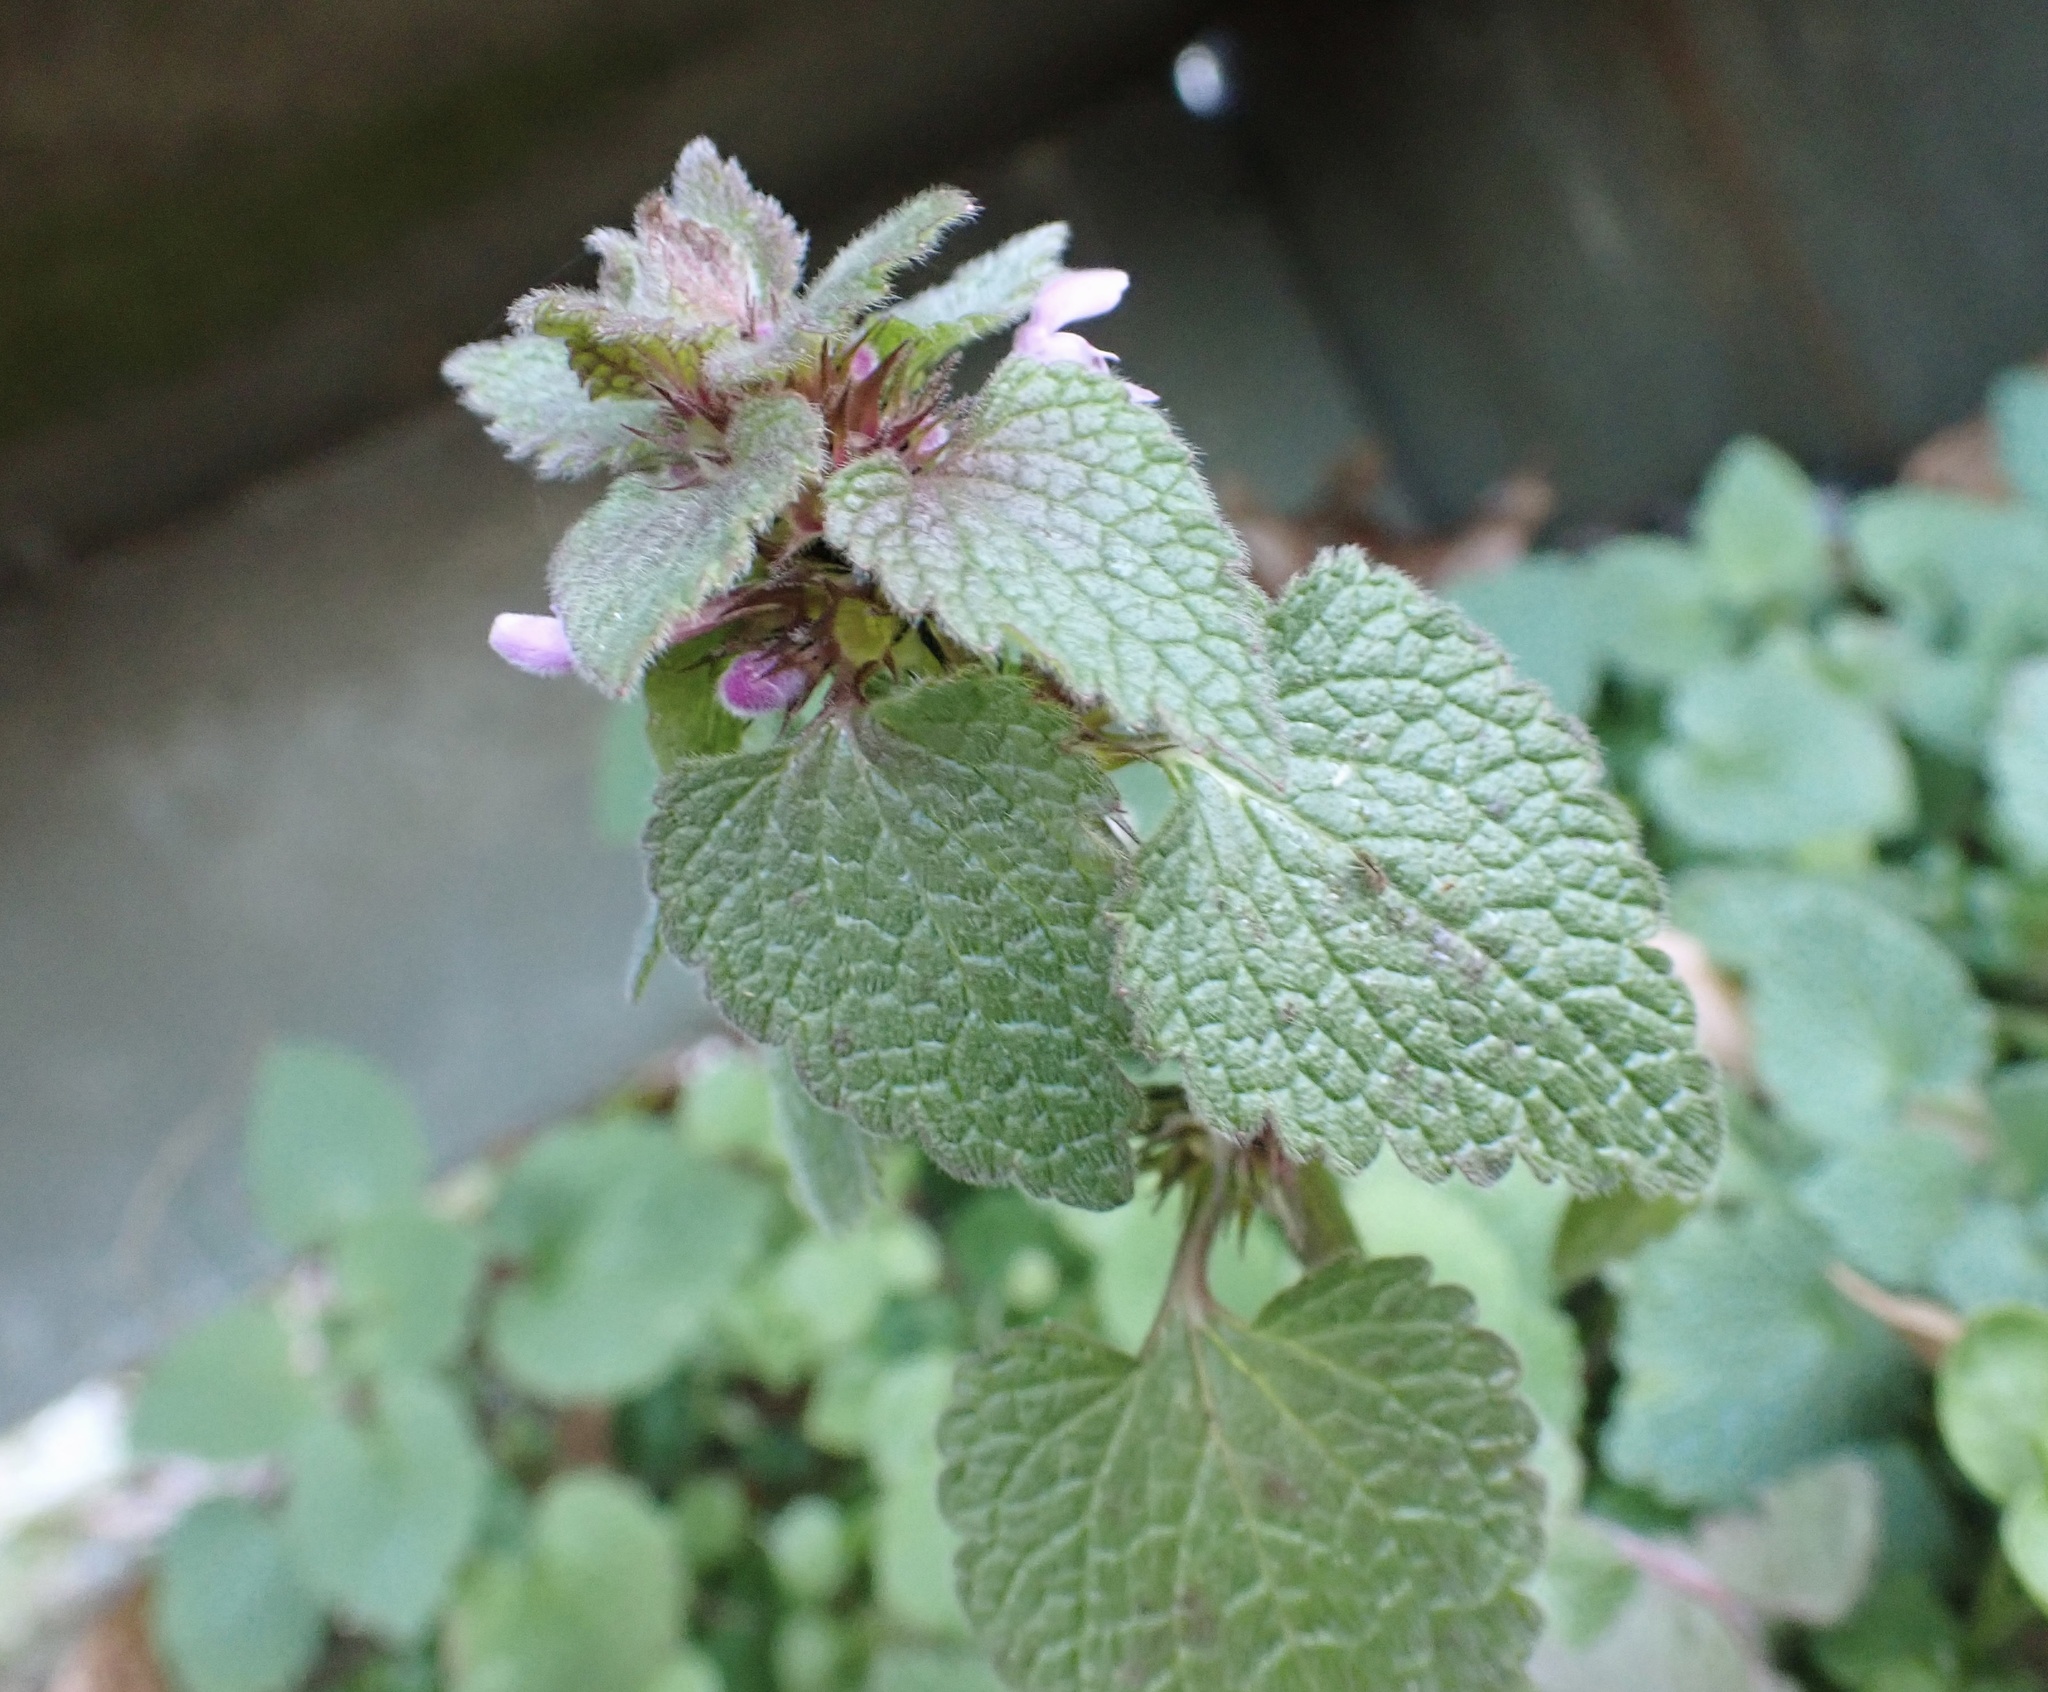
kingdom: Plantae
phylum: Tracheophyta
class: Magnoliopsida
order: Lamiales
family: Lamiaceae
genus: Lamium
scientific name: Lamium purpureum
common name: Red dead-nettle
